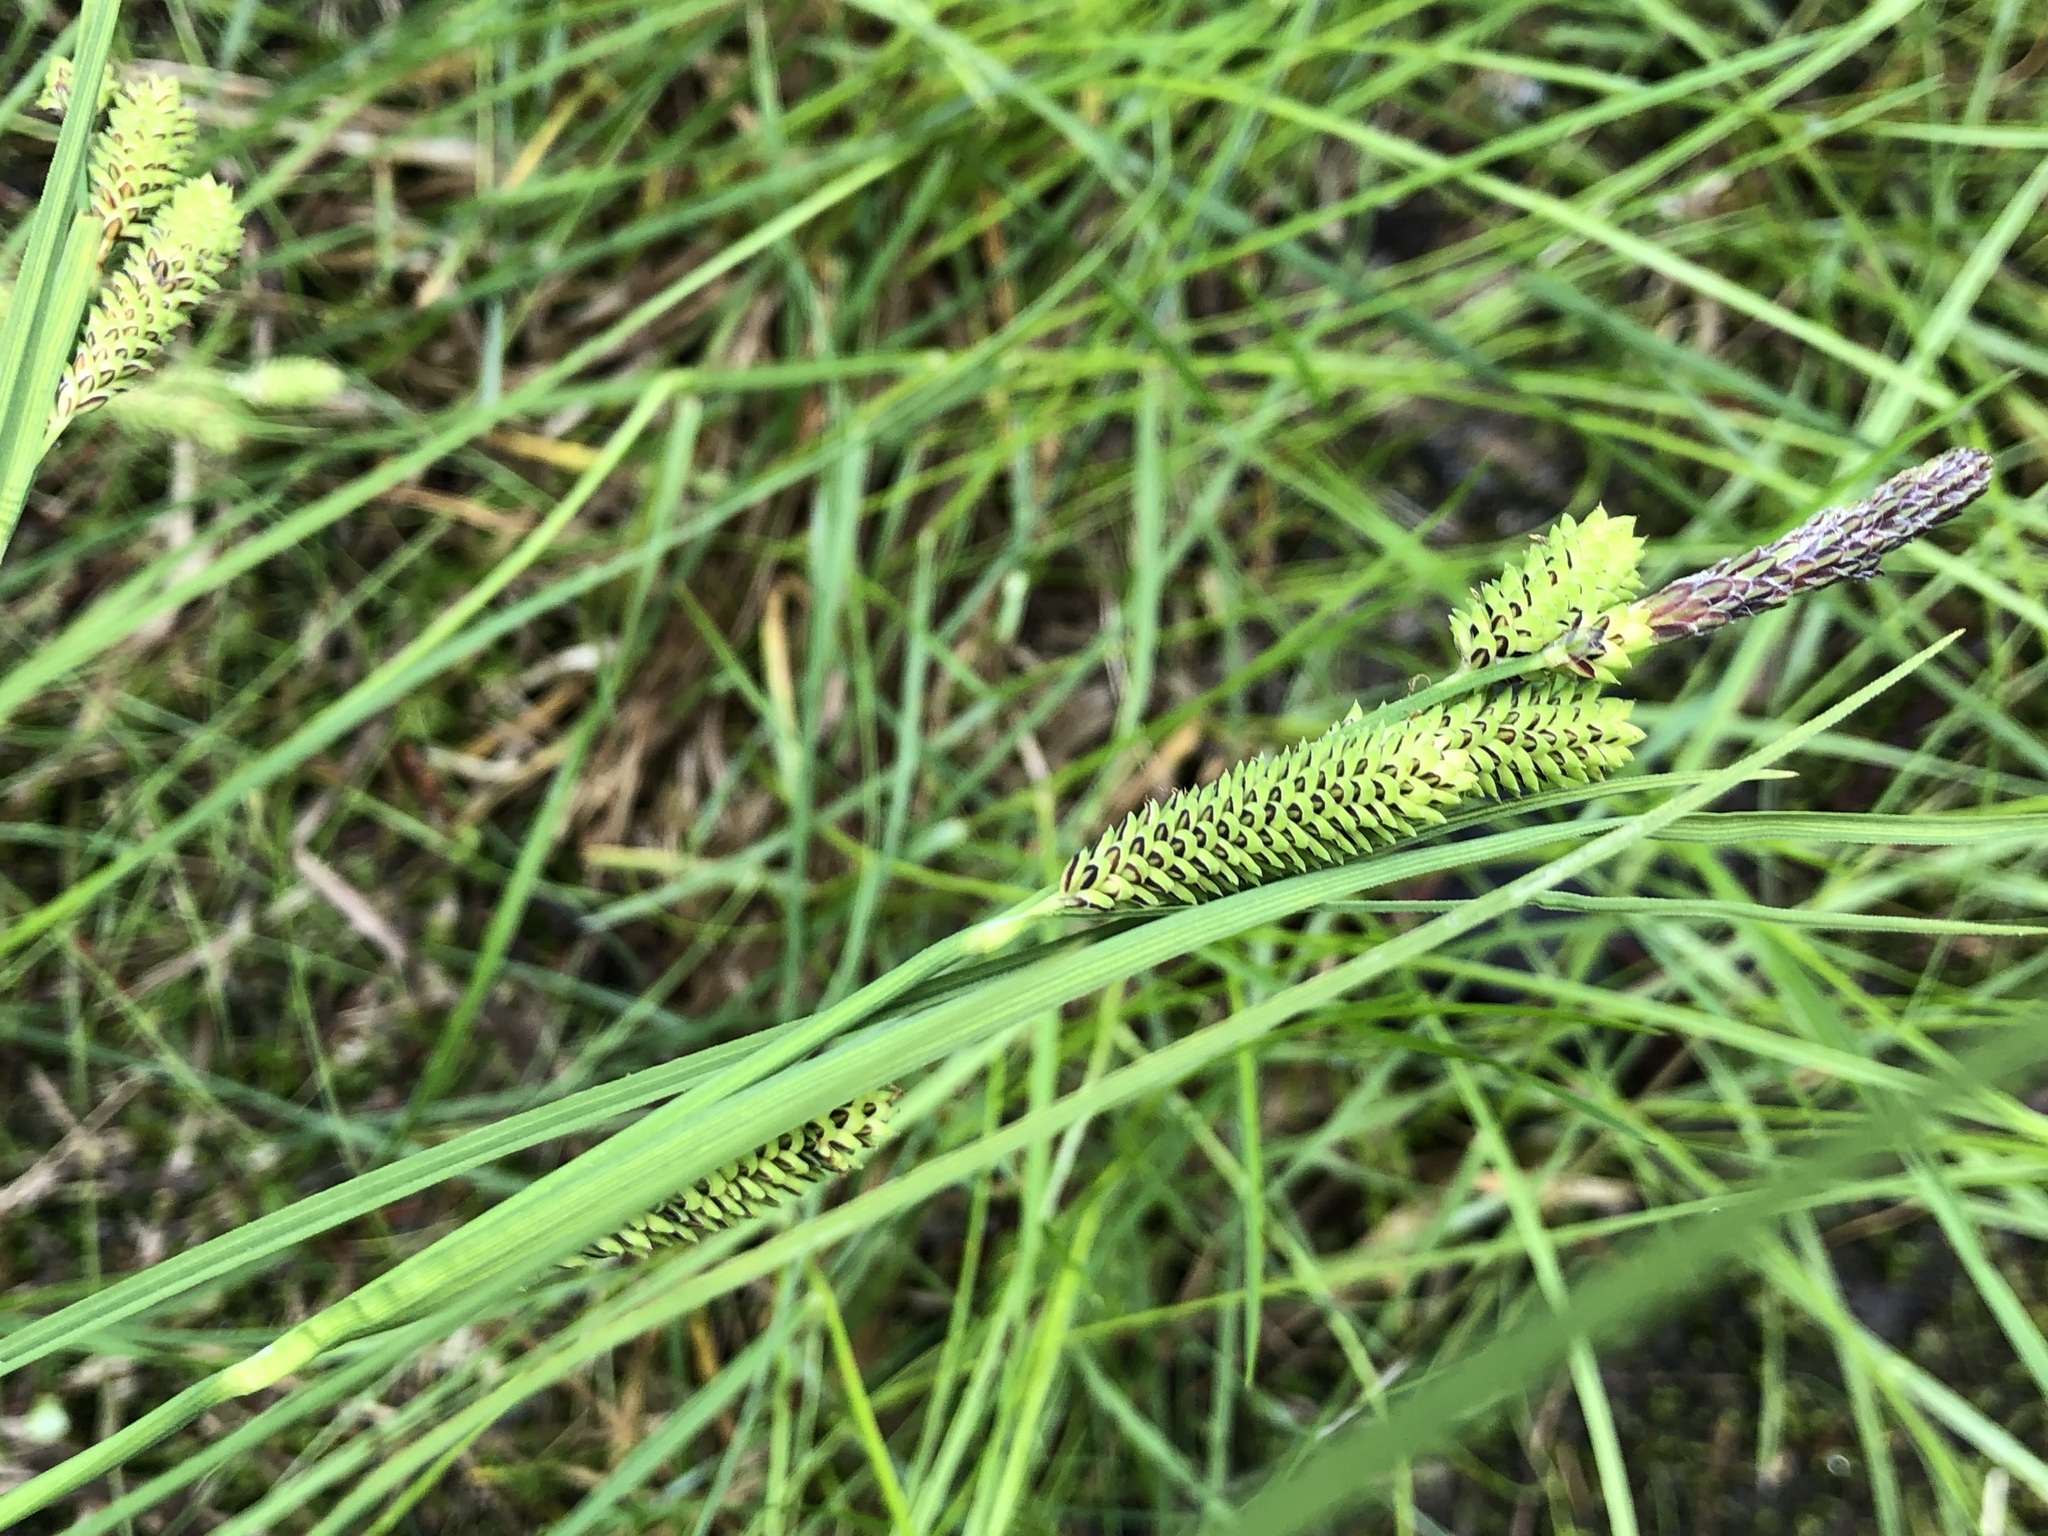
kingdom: Plantae
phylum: Tracheophyta
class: Liliopsida
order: Poales
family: Cyperaceae
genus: Carex
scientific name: Carex kelloggii
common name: Kellogg's sedge
